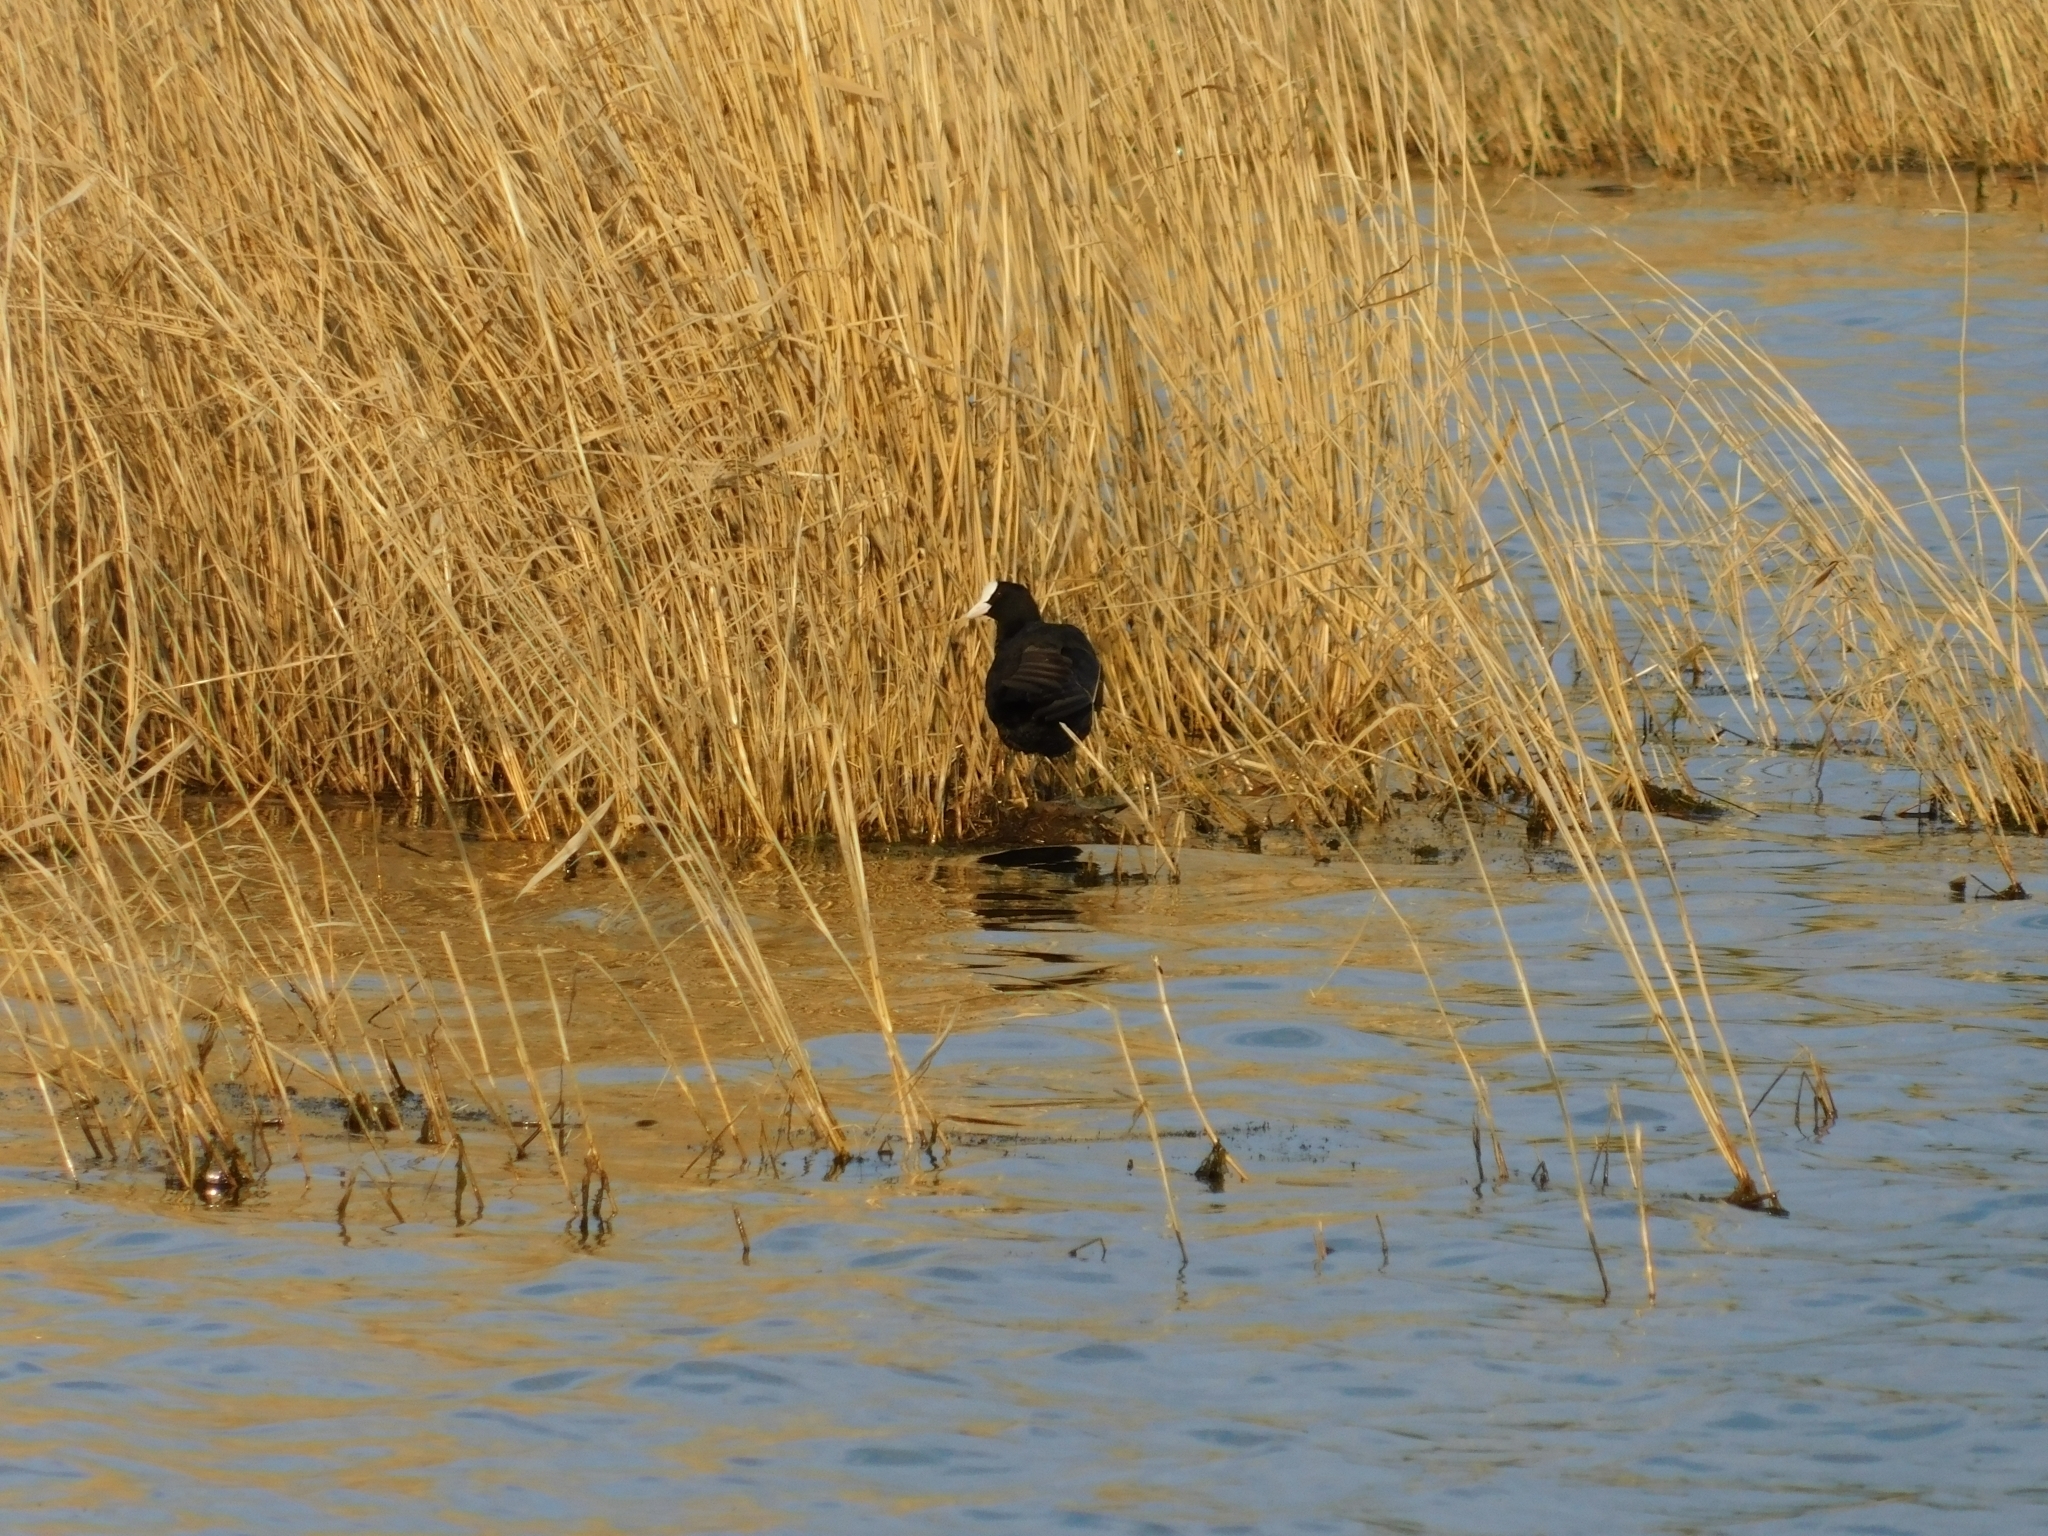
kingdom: Animalia
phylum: Chordata
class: Aves
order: Gruiformes
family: Rallidae
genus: Fulica
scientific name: Fulica atra
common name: Eurasian coot
